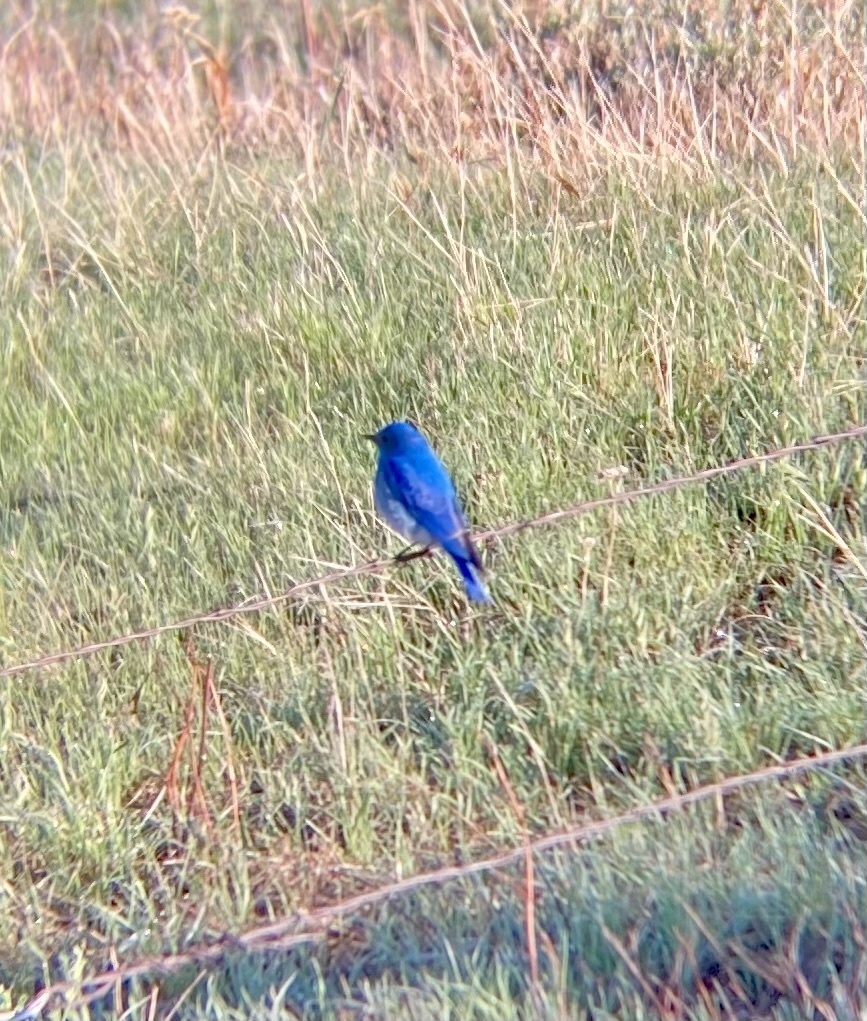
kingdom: Animalia
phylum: Chordata
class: Aves
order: Passeriformes
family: Turdidae
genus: Sialia
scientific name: Sialia currucoides
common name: Mountain bluebird
